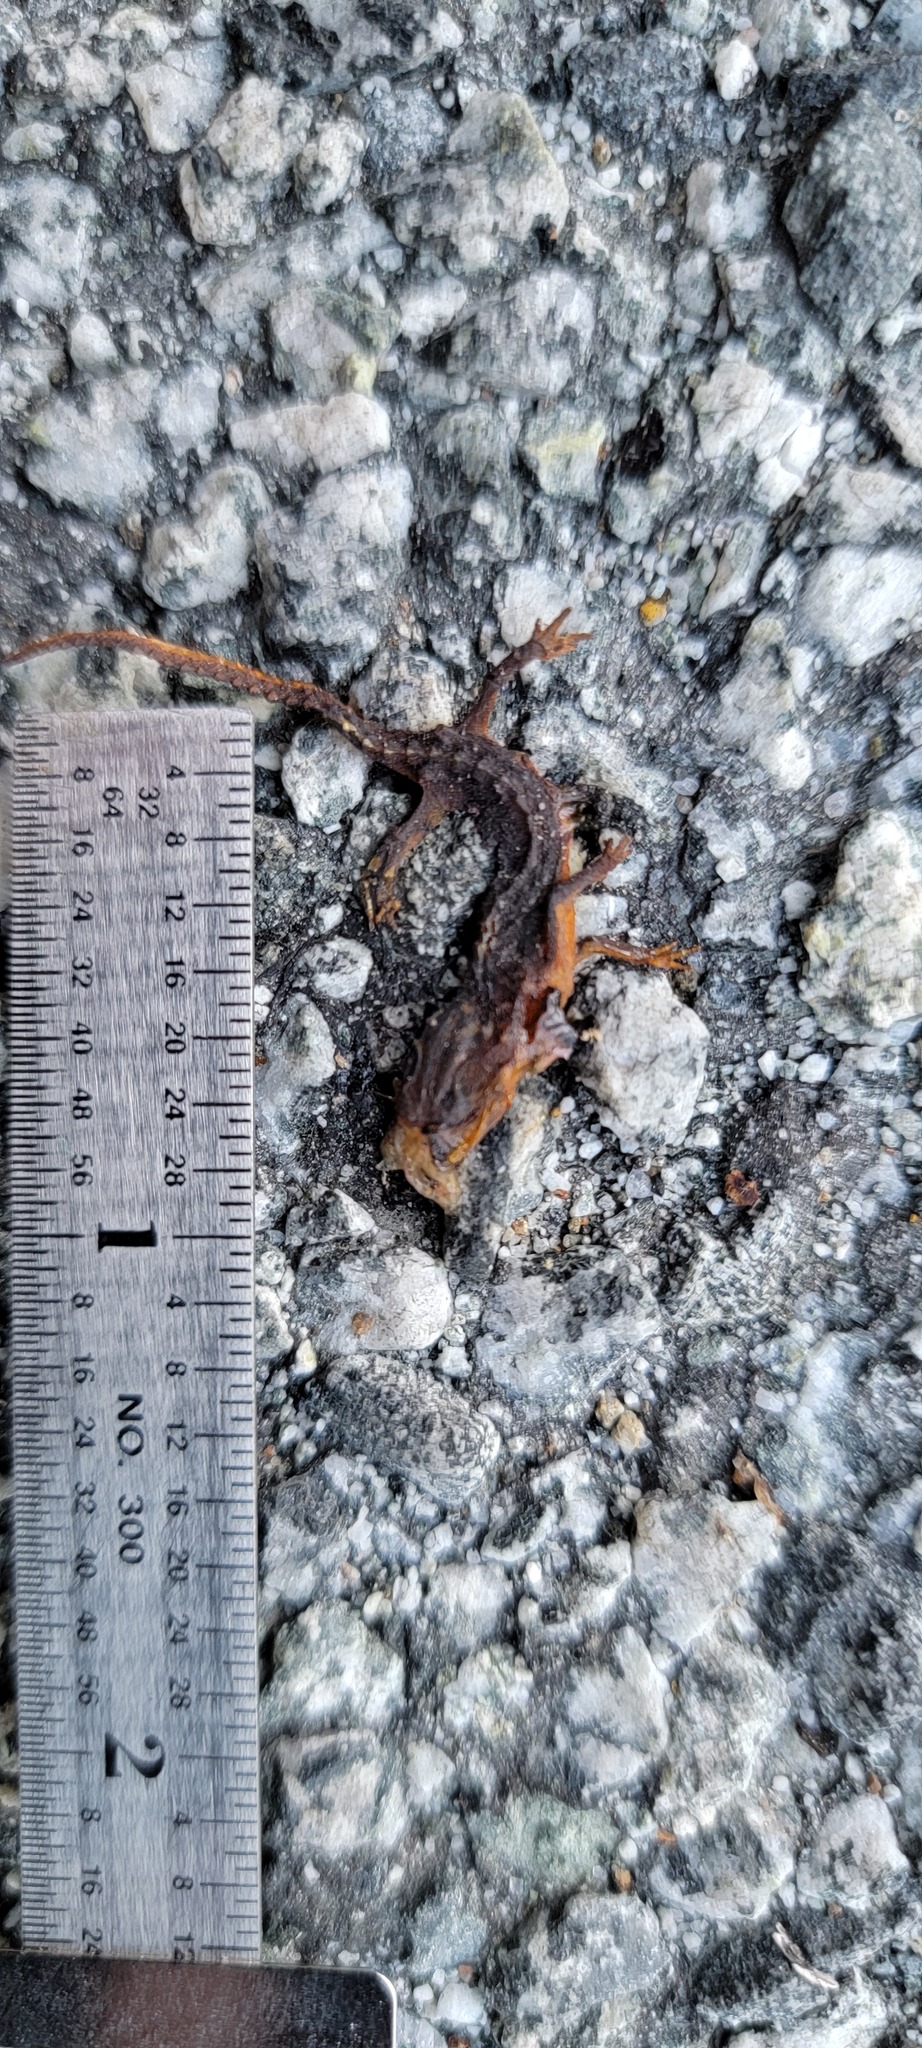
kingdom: Animalia
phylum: Chordata
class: Amphibia
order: Caudata
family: Salamandridae
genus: Taricha
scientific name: Taricha
